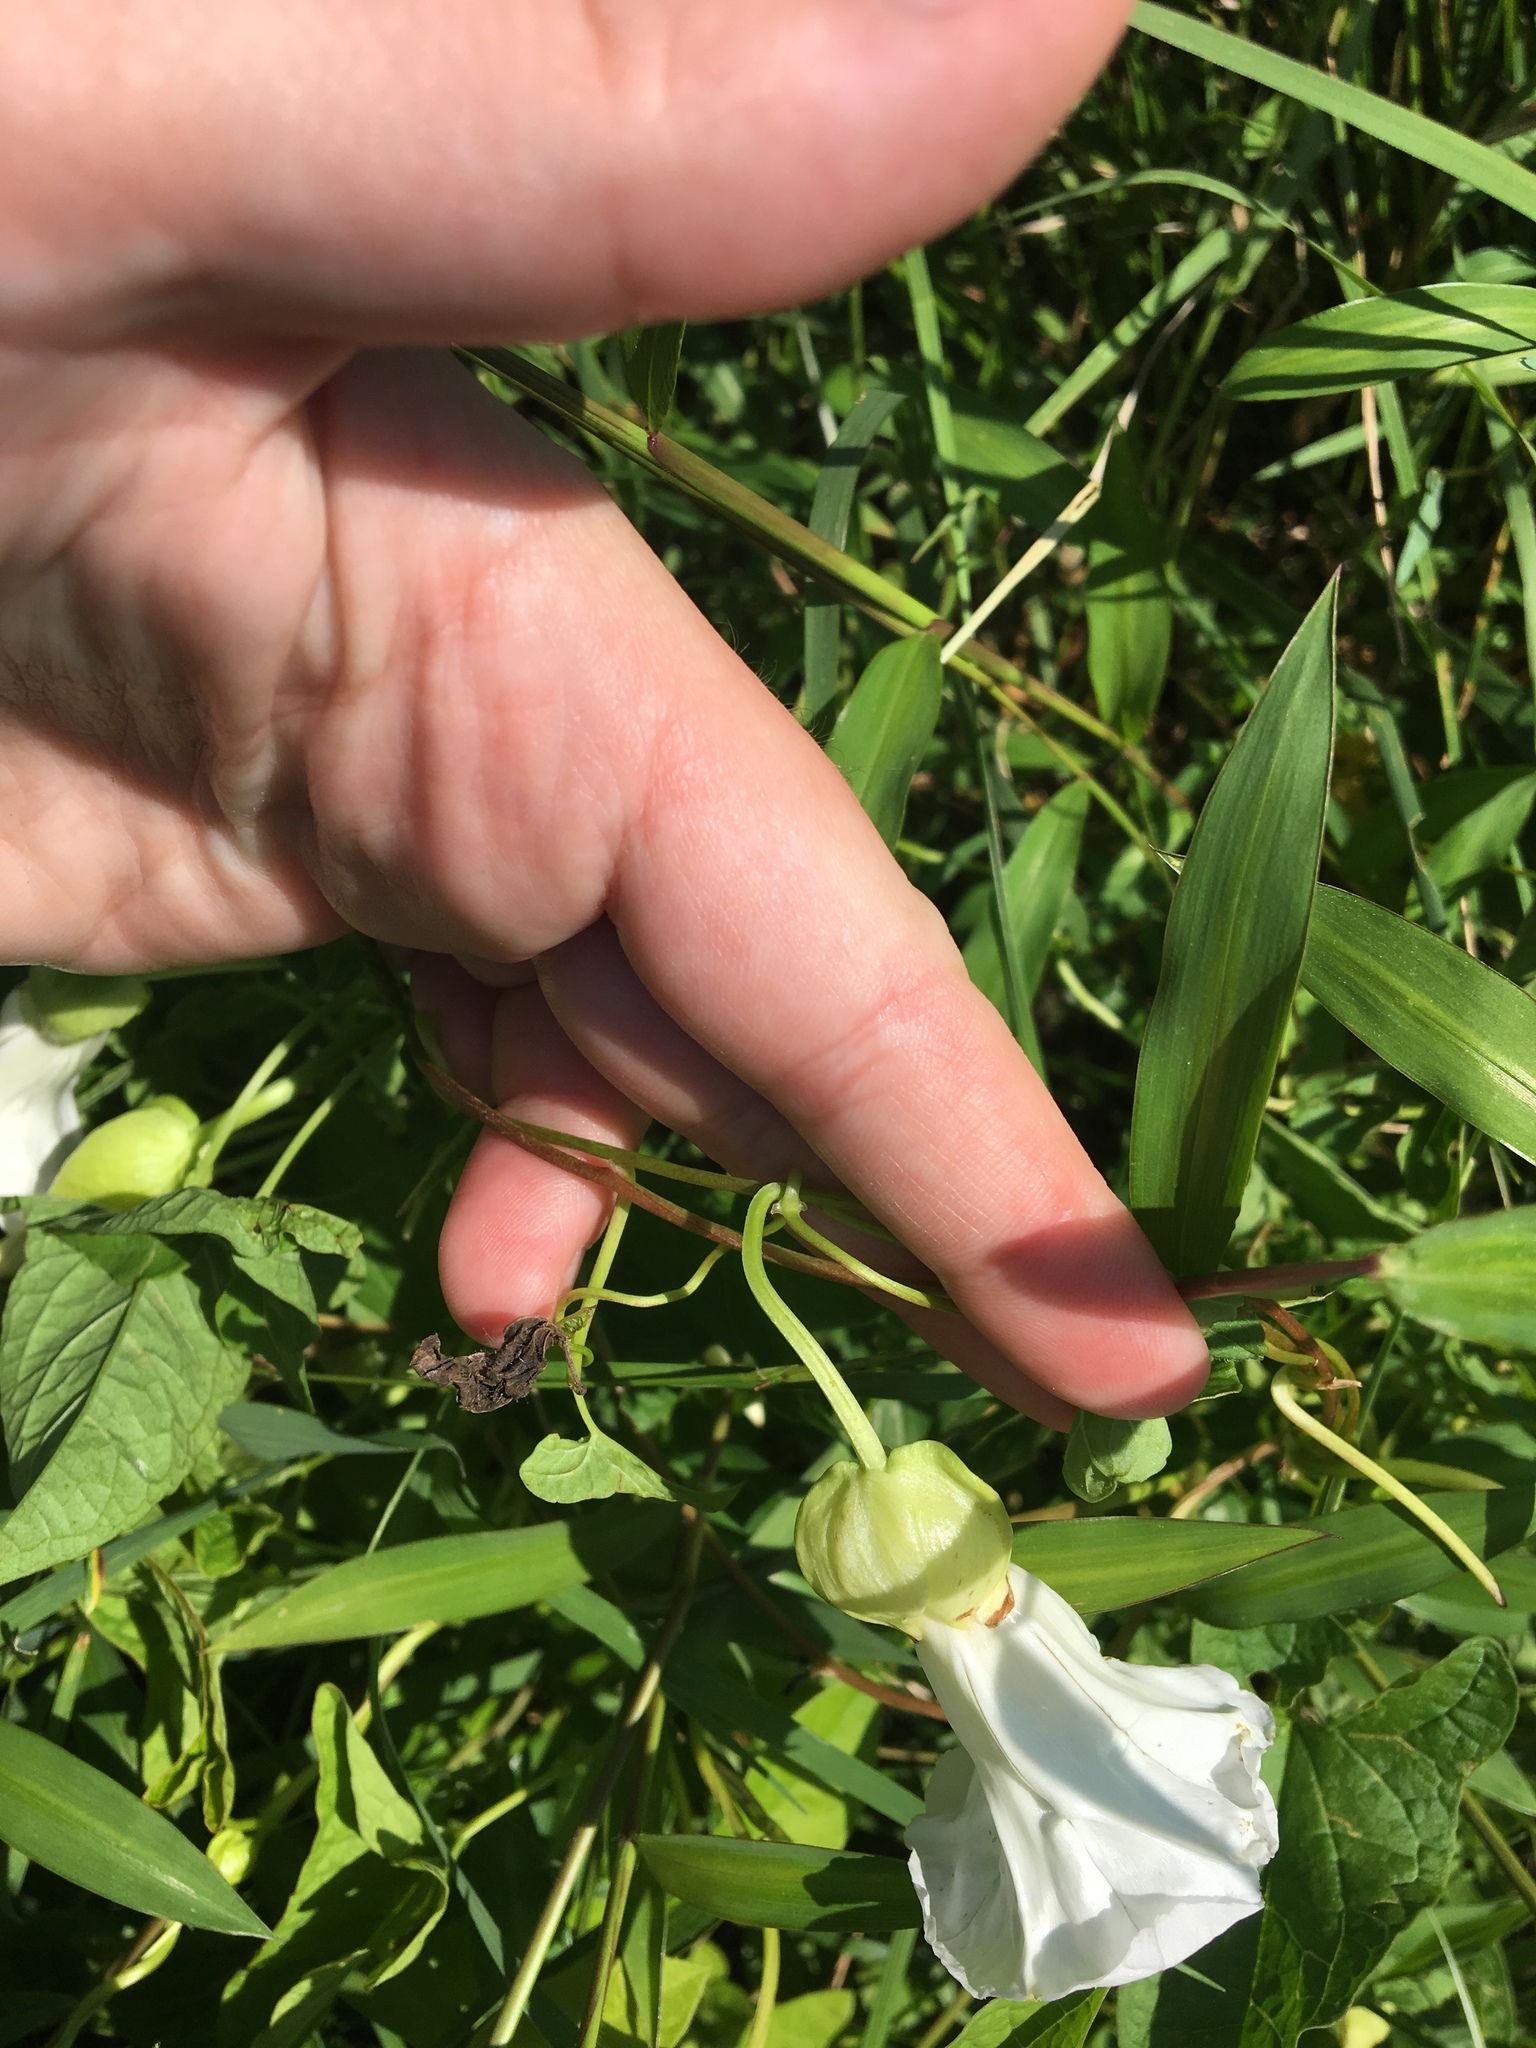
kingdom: Plantae
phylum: Tracheophyta
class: Magnoliopsida
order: Solanales
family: Convolvulaceae
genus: Calystegia
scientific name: Calystegia sepium
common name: Hedge bindweed
